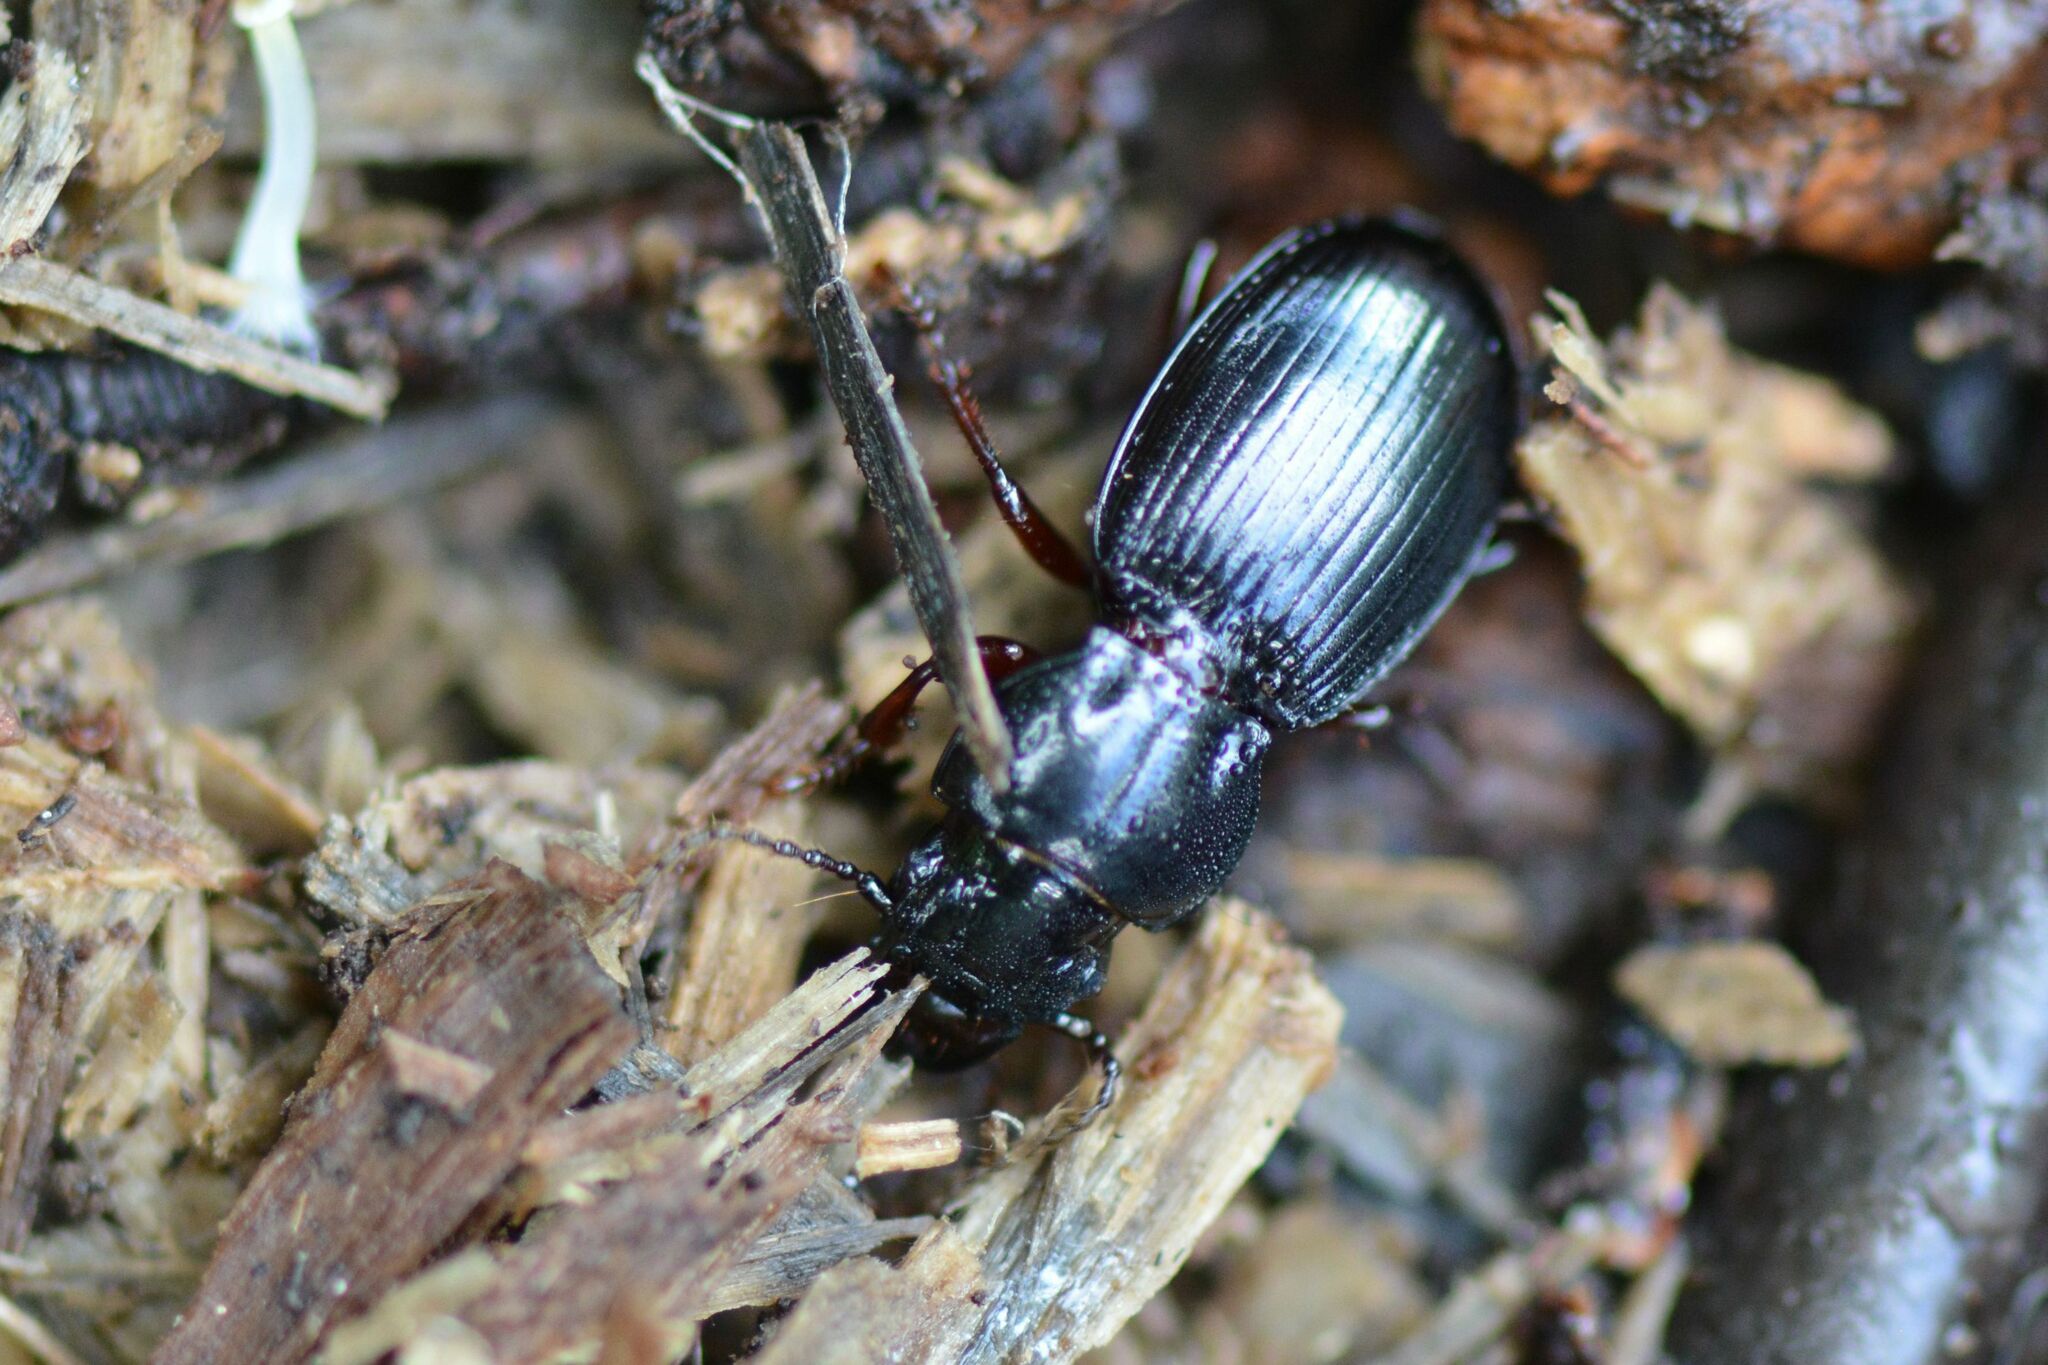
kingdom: Animalia
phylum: Arthropoda
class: Insecta
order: Coleoptera
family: Carabidae
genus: Molops
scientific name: Molops piceus
